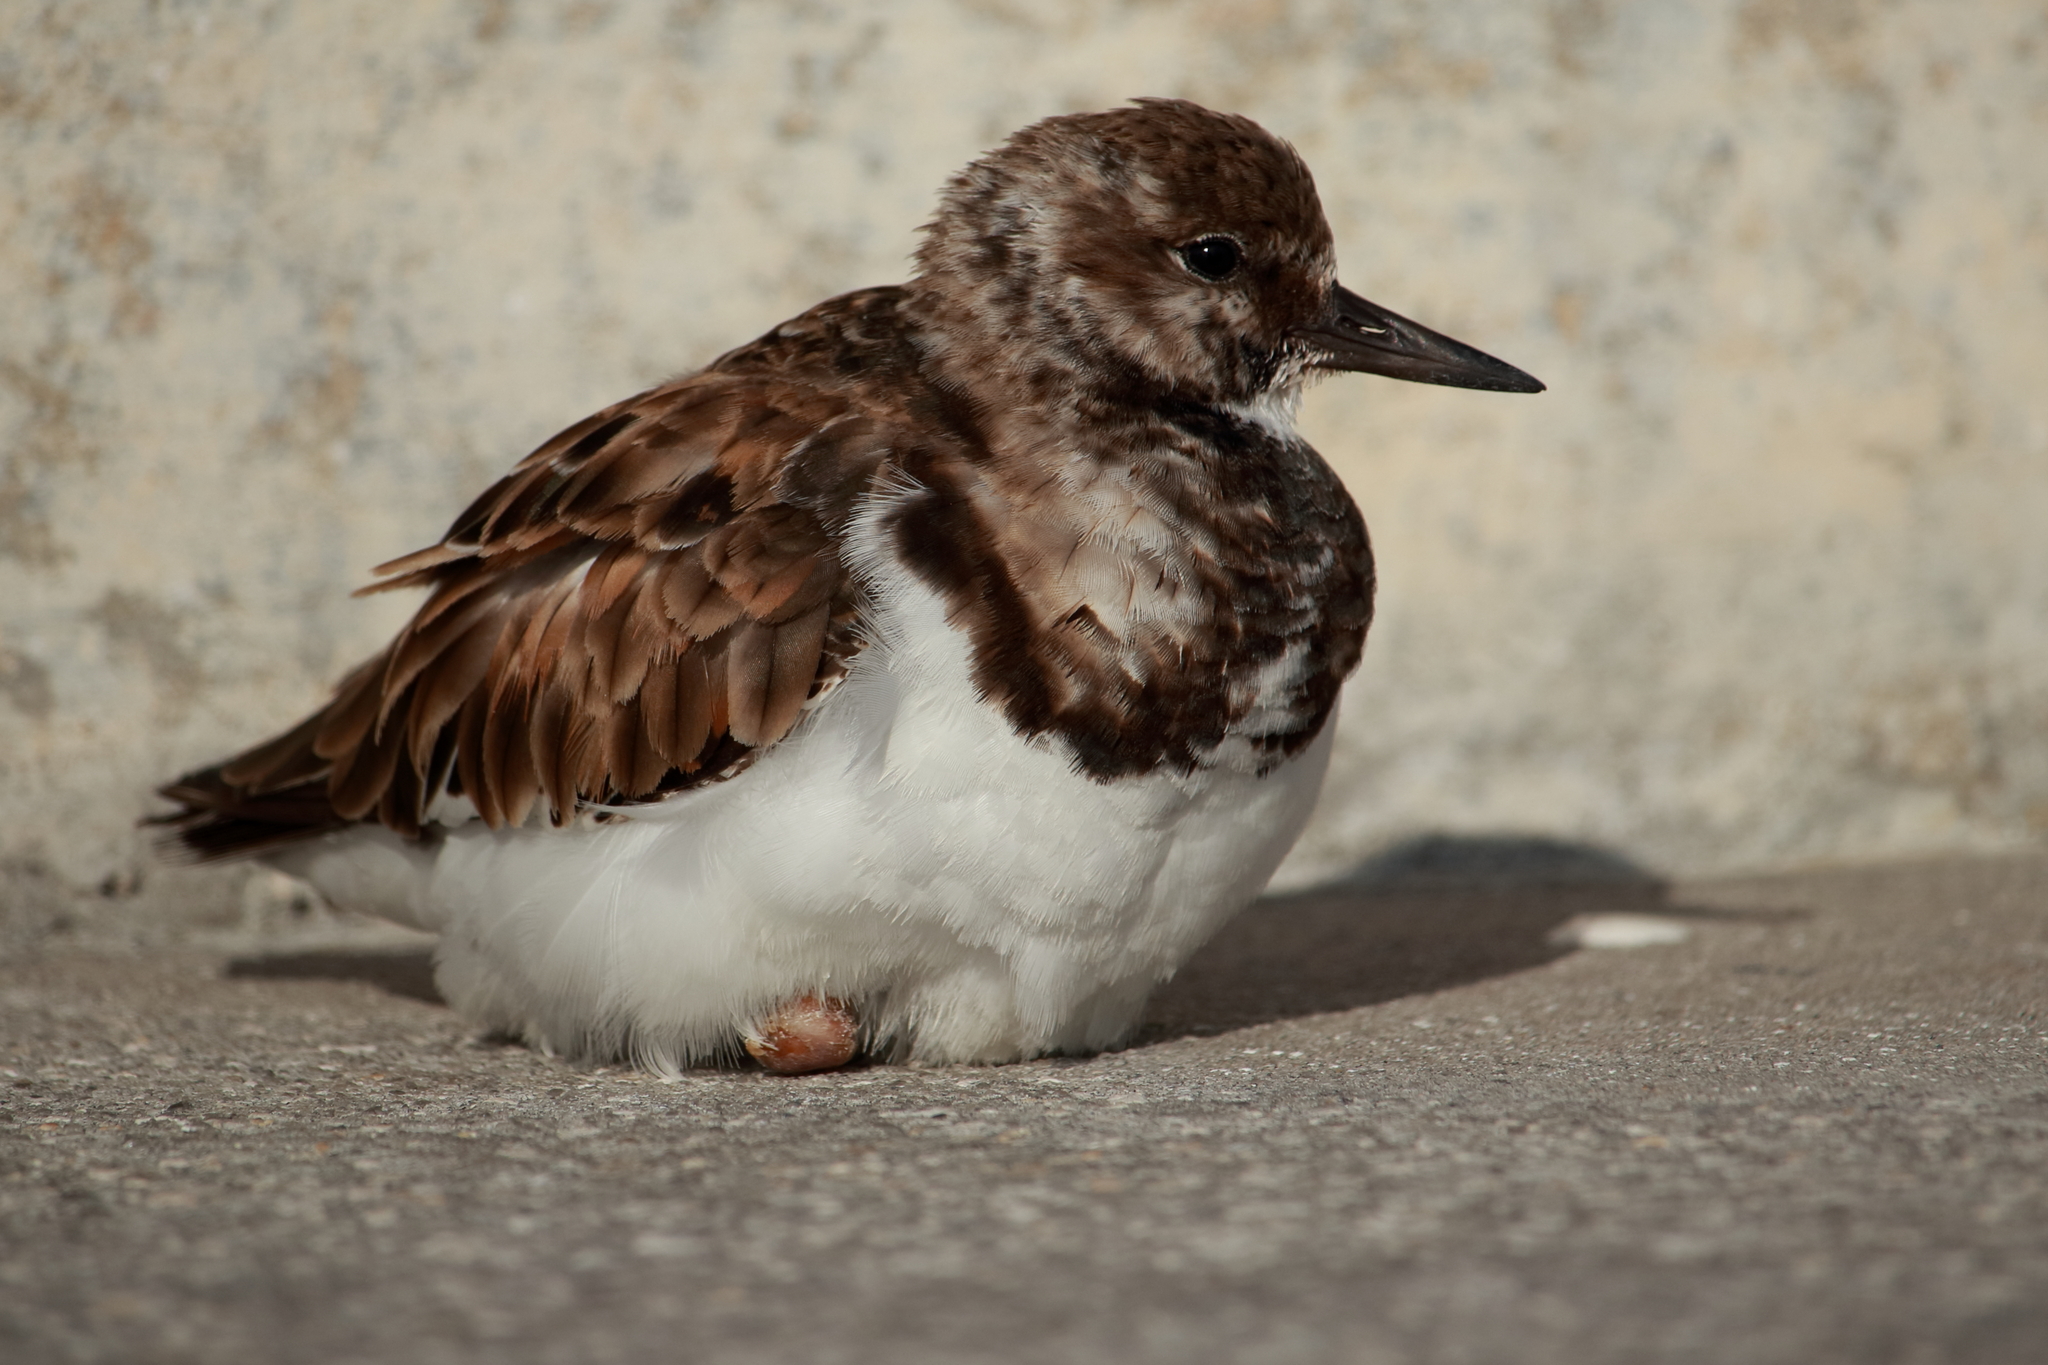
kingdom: Animalia
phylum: Chordata
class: Aves
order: Charadriiformes
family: Scolopacidae
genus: Arenaria
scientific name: Arenaria interpres
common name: Ruddy turnstone
